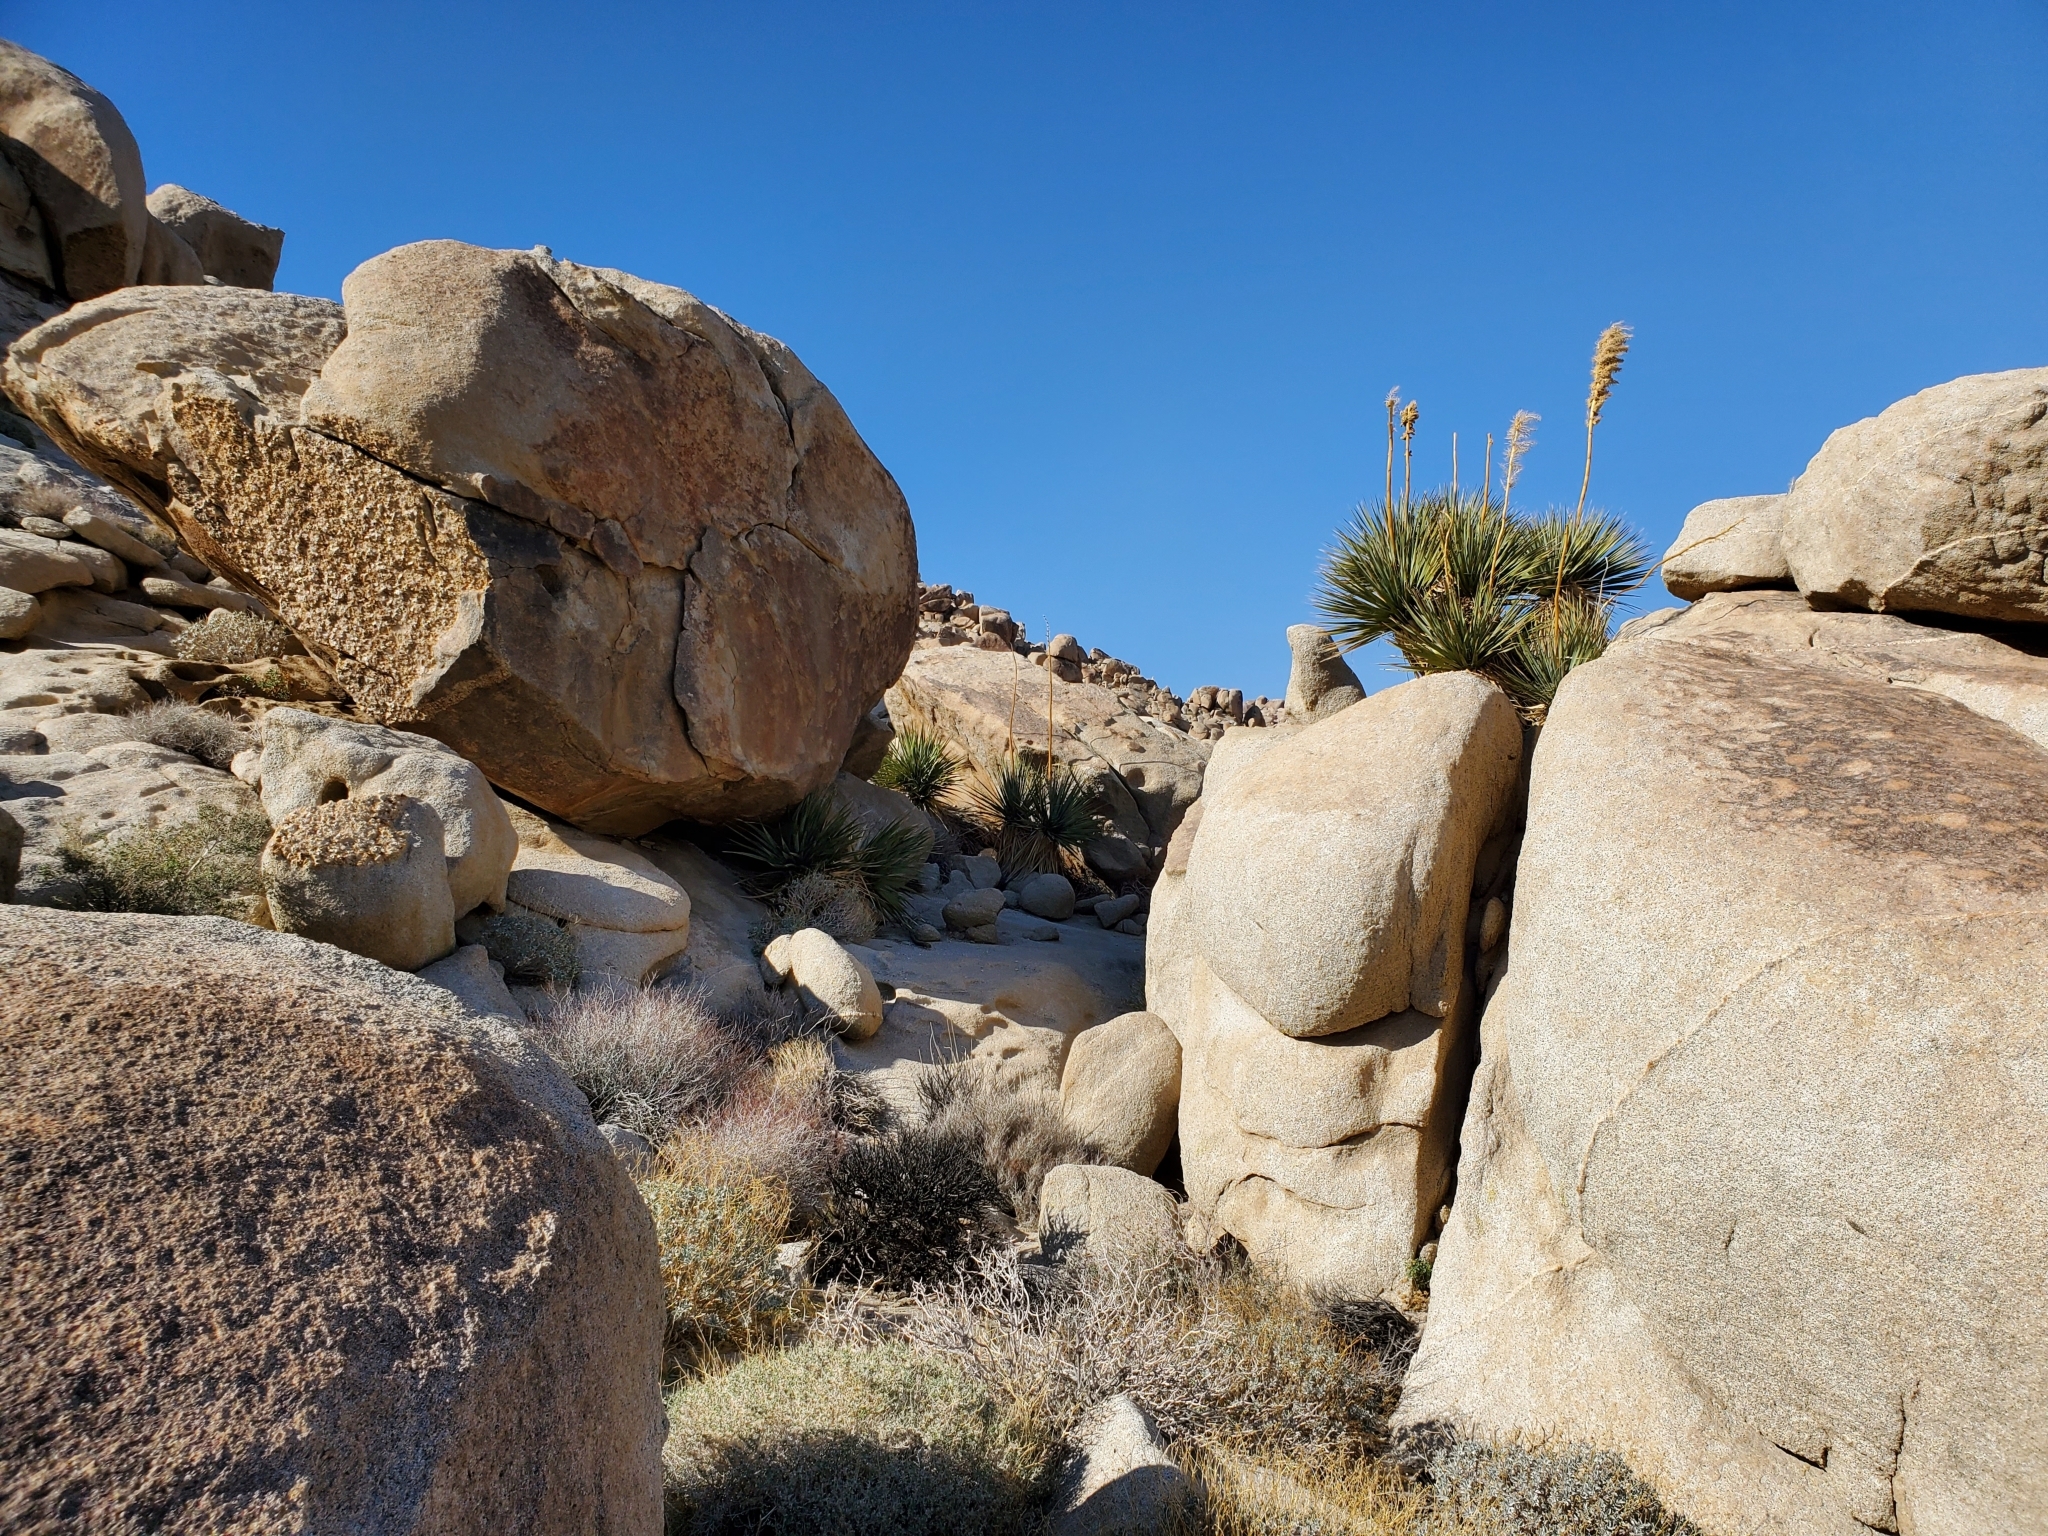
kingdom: Plantae
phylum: Tracheophyta
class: Liliopsida
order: Asparagales
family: Asparagaceae
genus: Nolina
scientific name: Nolina bigelovii
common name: Bigelow bear-grass
